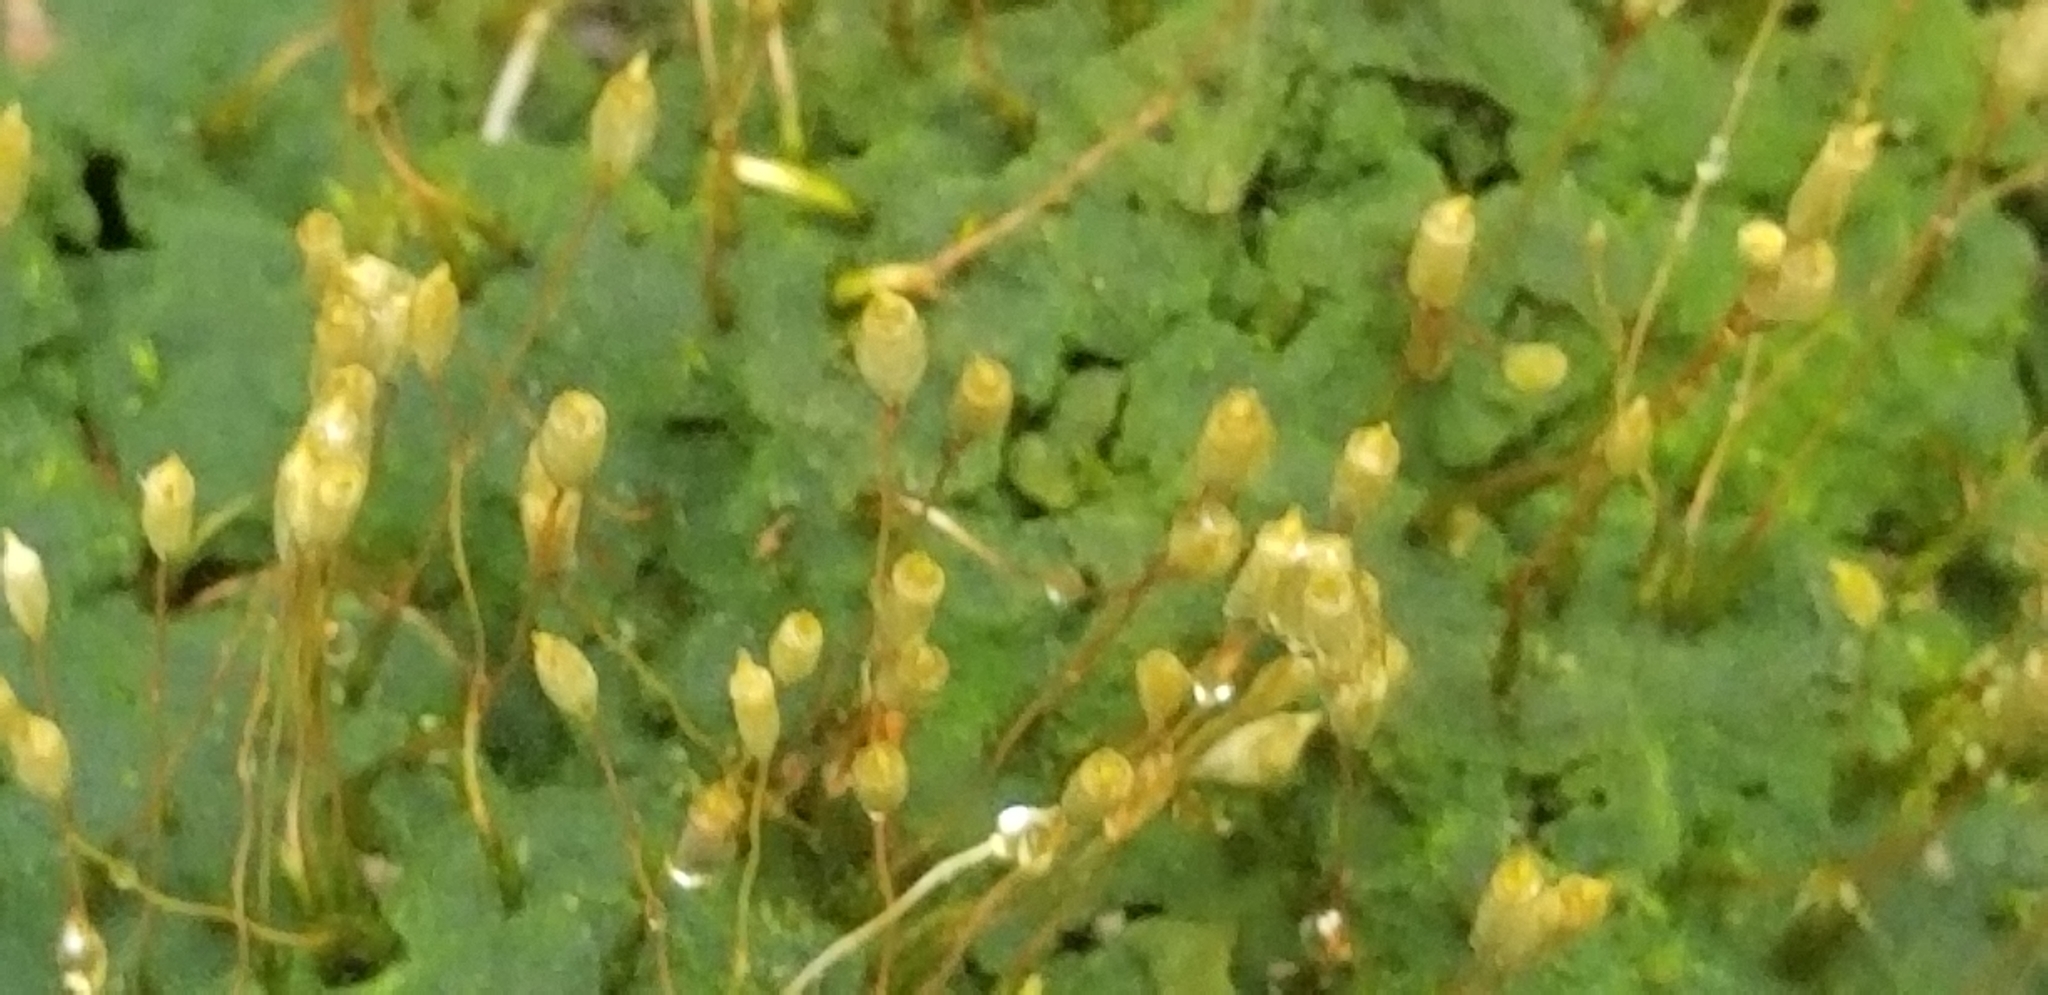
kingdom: Plantae
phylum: Bryophyta
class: Polytrichopsida
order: Polytrichales
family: Polytrichaceae
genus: Pogonatum
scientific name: Pogonatum pensilvanicum
